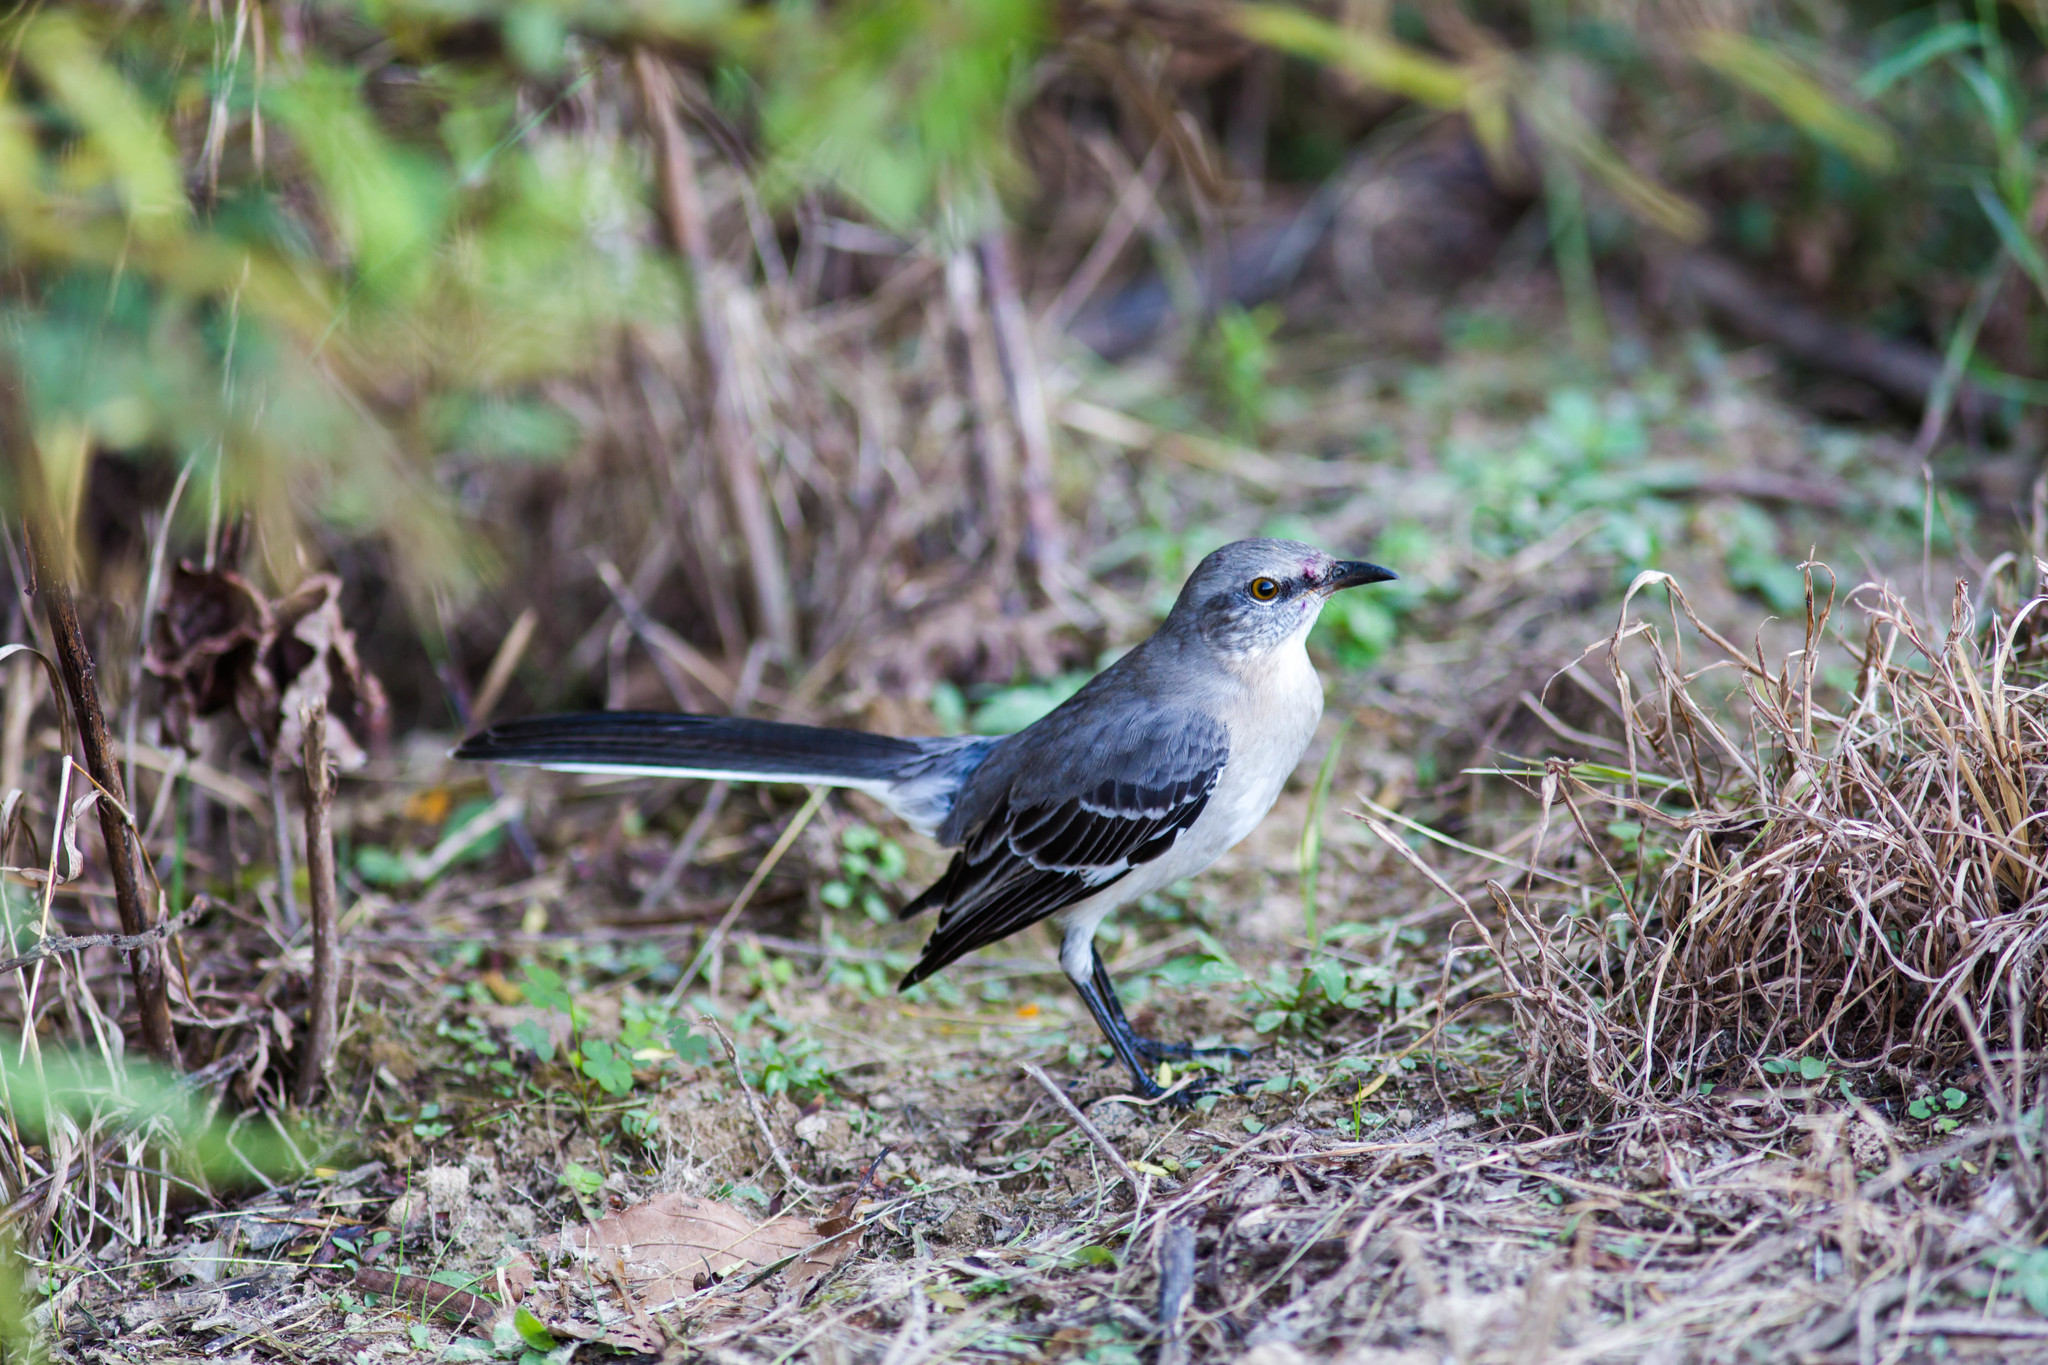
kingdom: Animalia
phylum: Chordata
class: Aves
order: Passeriformes
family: Mimidae
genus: Mimus
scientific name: Mimus polyglottos
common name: Northern mockingbird
